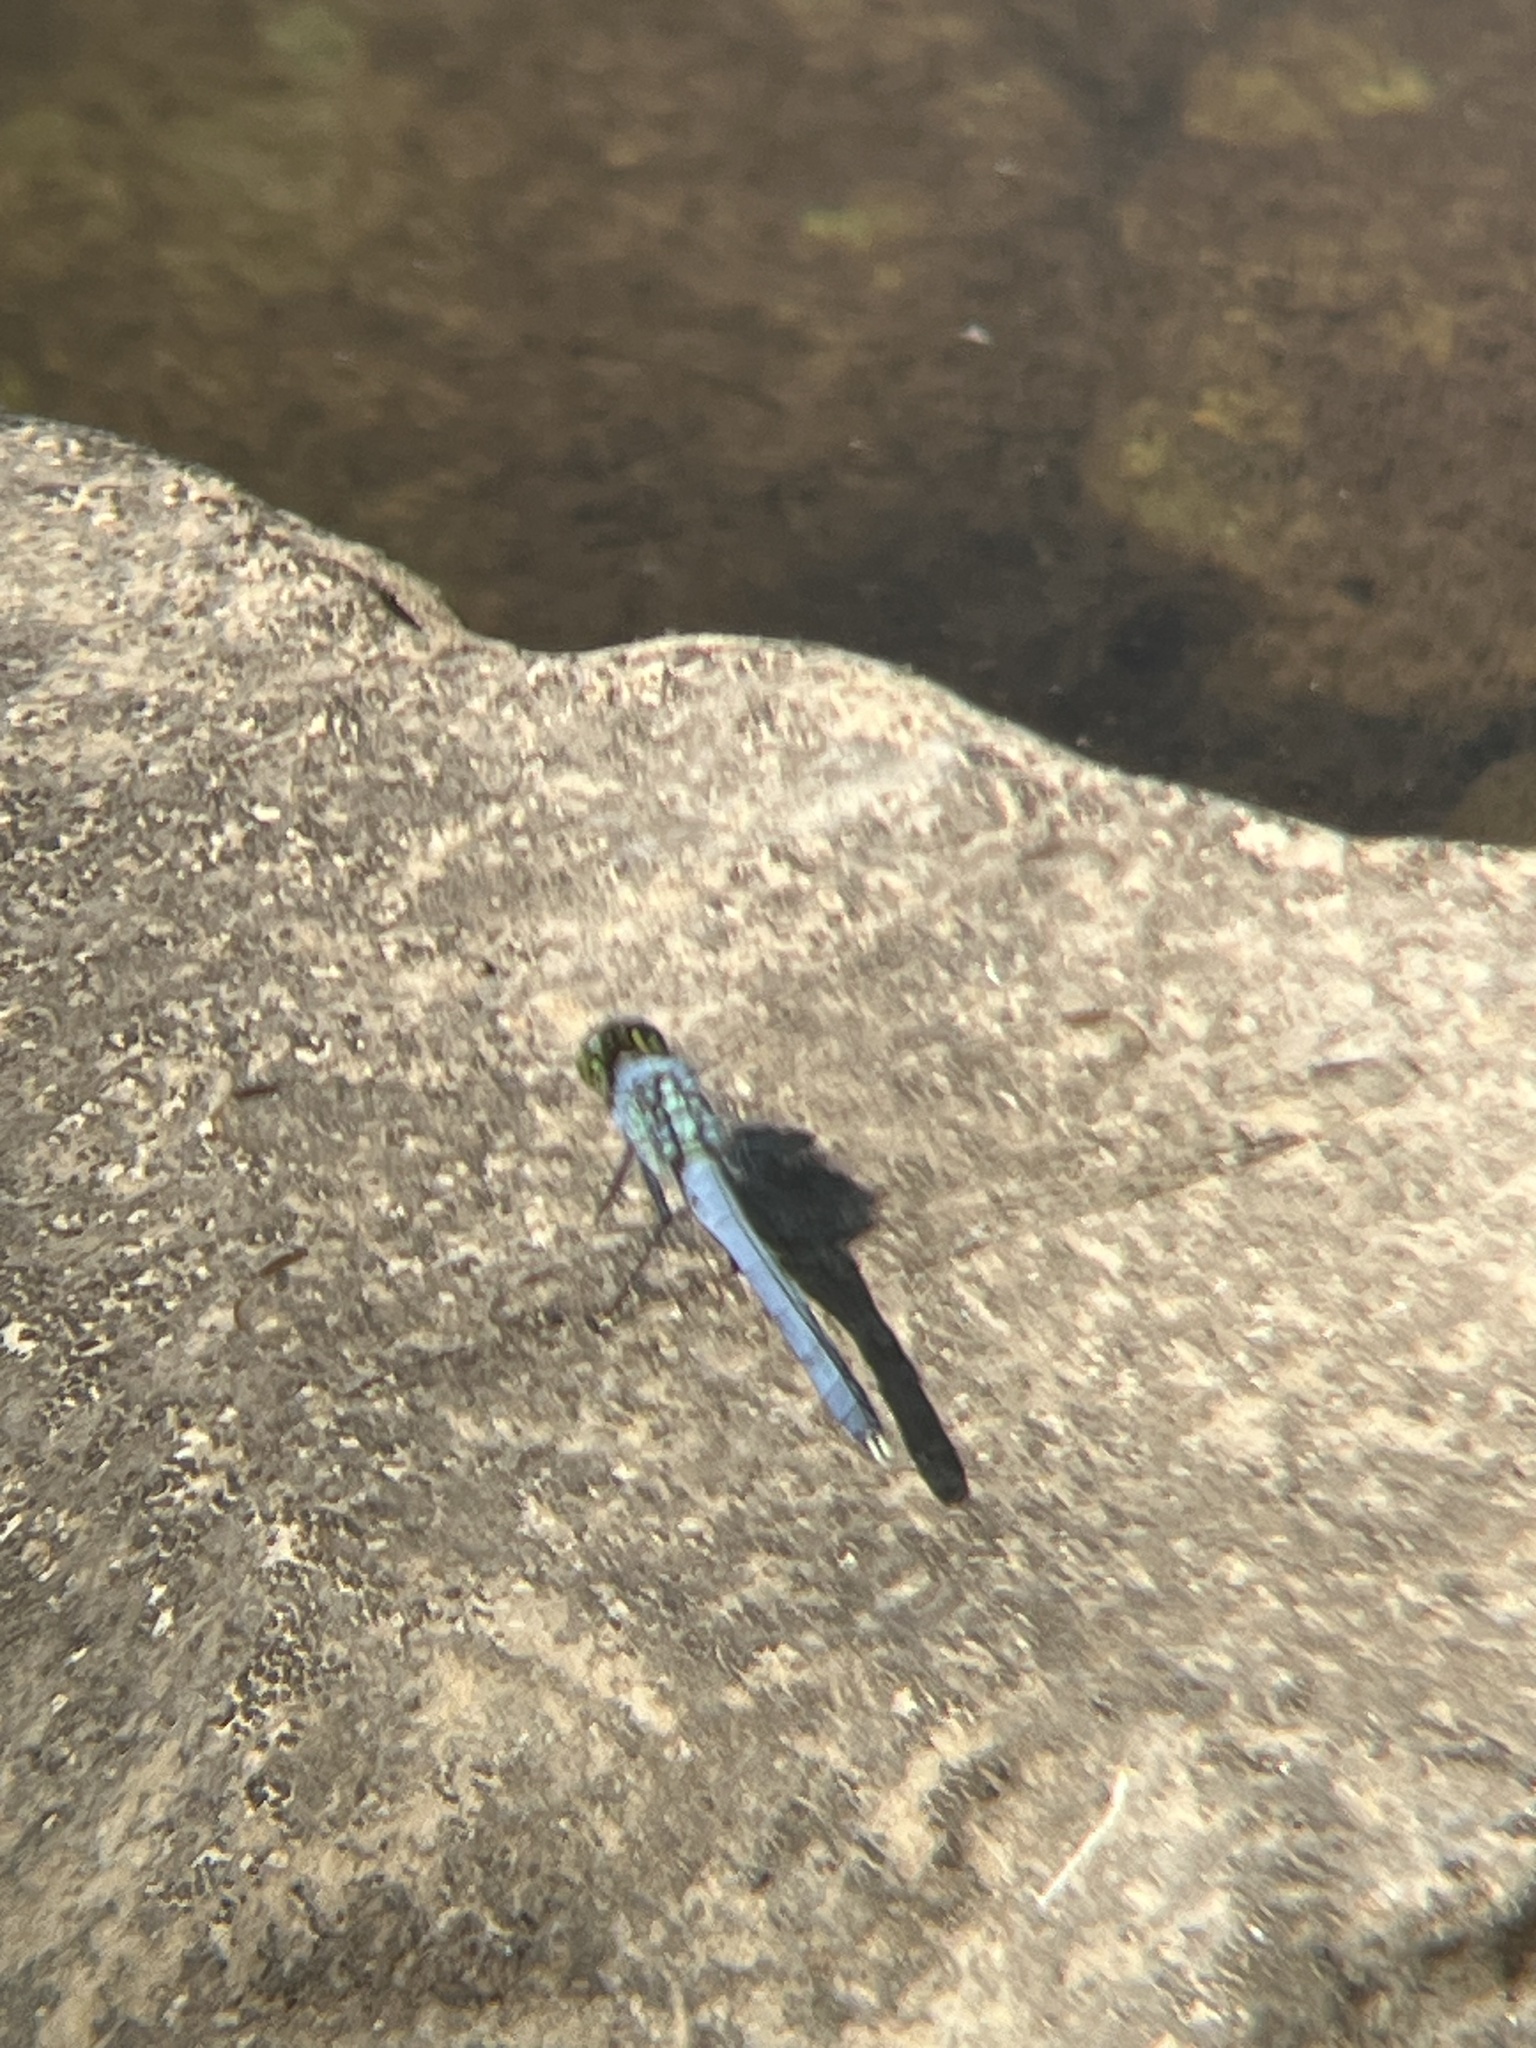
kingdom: Animalia
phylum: Arthropoda
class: Insecta
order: Odonata
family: Libellulidae
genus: Erythemis
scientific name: Erythemis simplicicollis
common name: Eastern pondhawk
